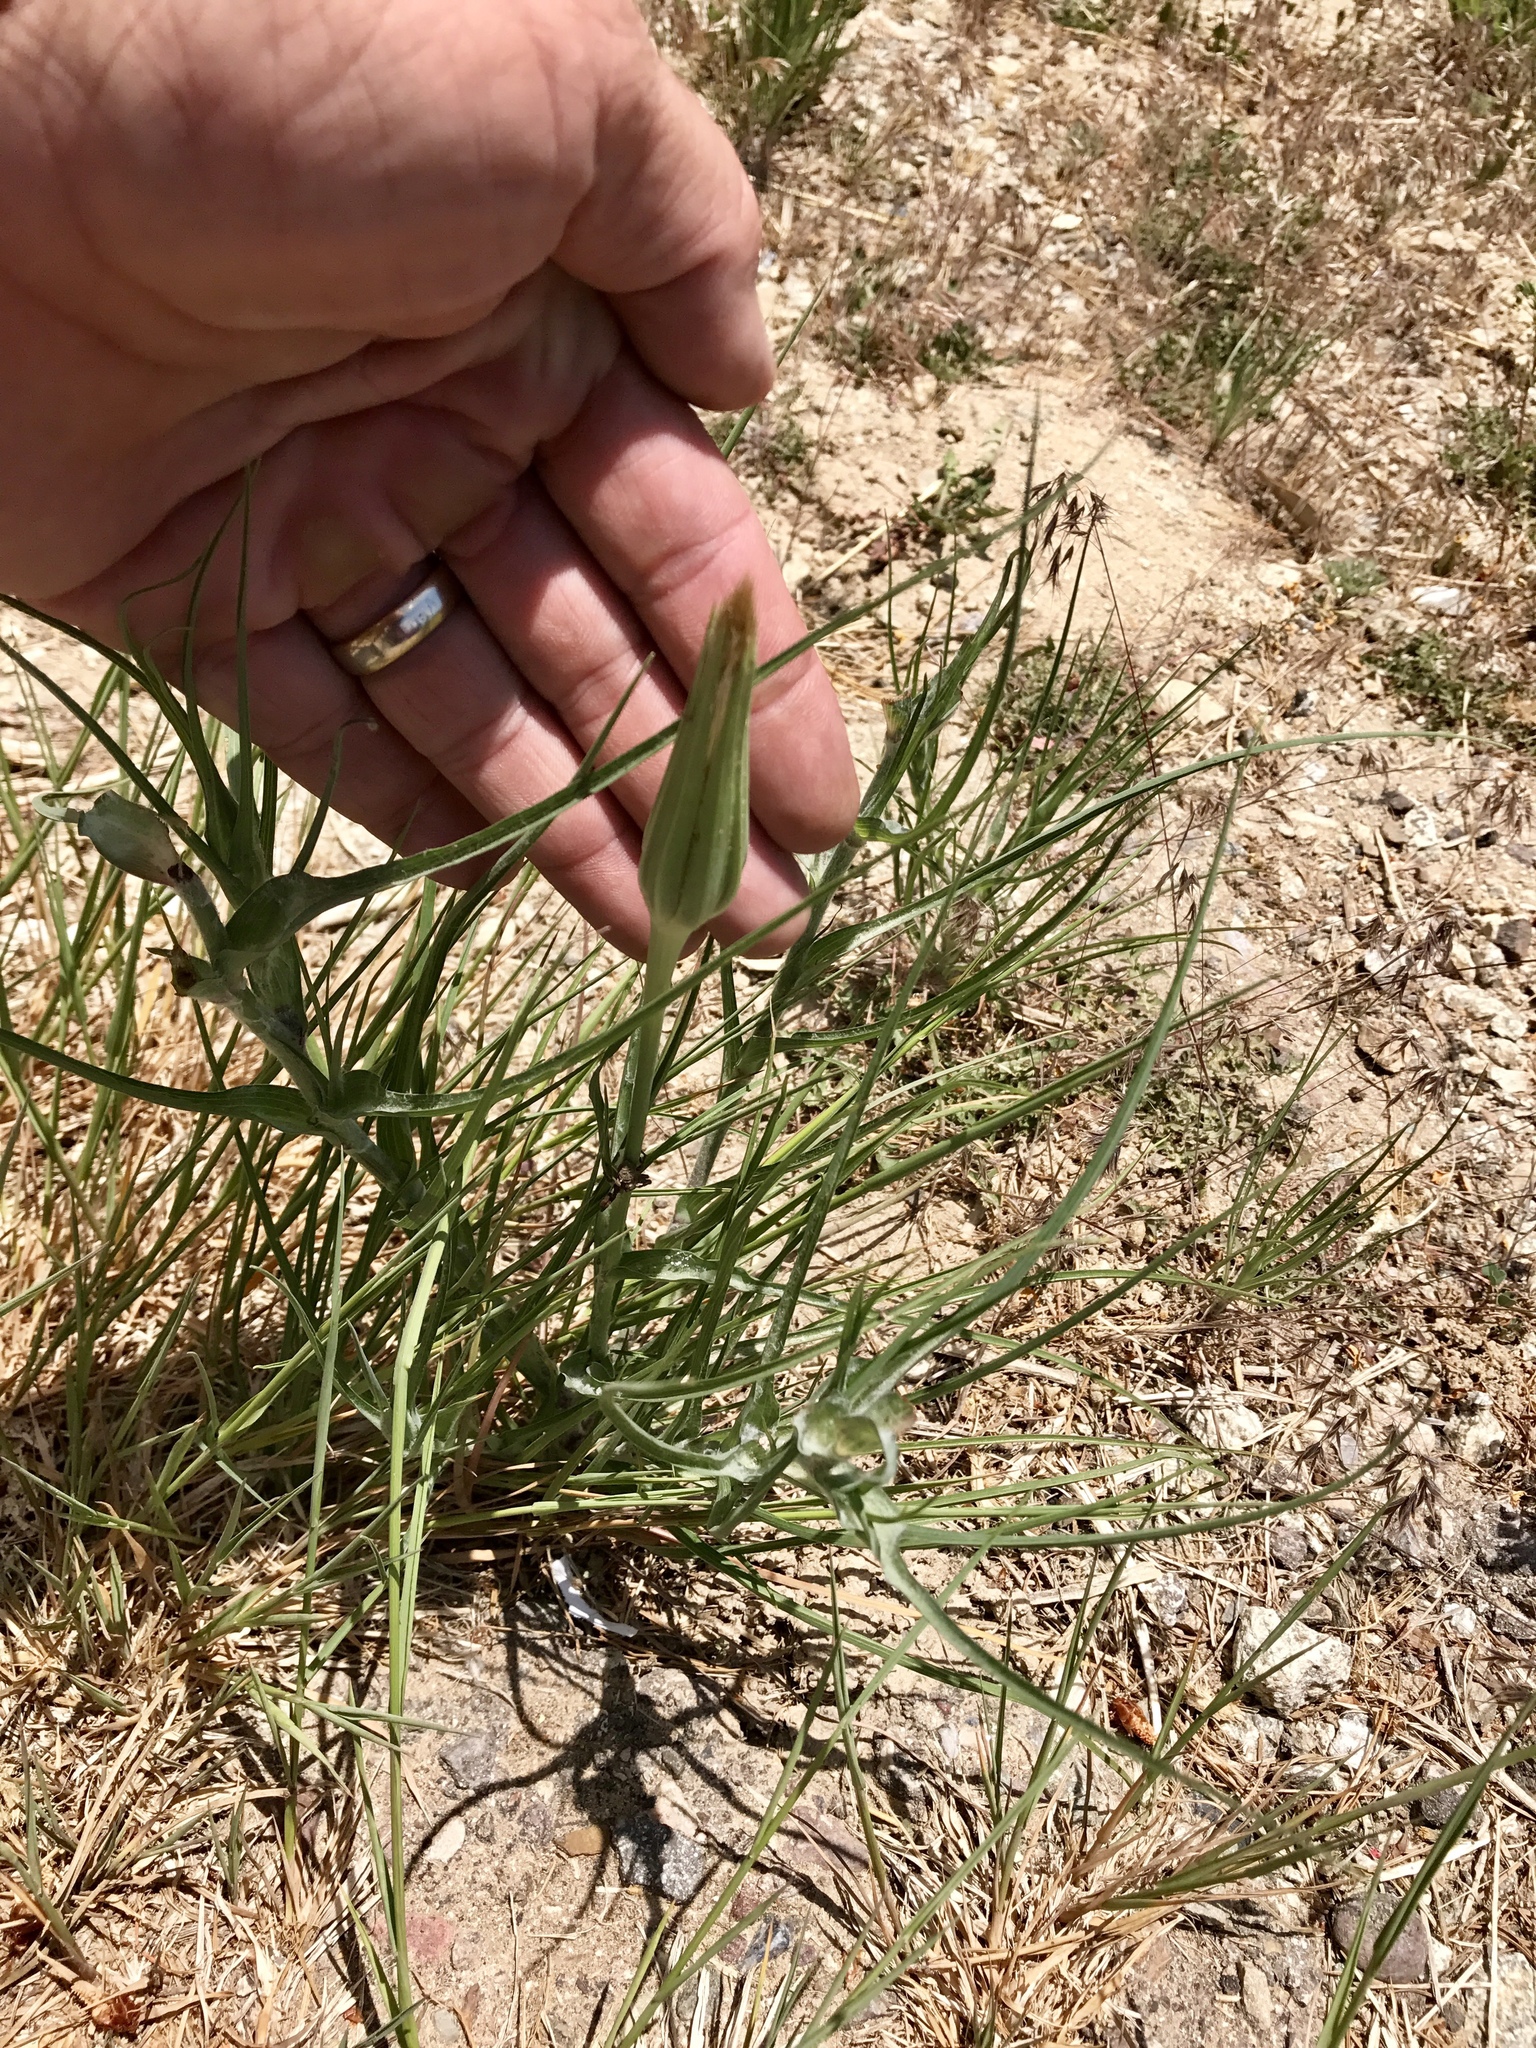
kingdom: Plantae
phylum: Tracheophyta
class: Magnoliopsida
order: Asterales
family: Asteraceae
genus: Tragopogon
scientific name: Tragopogon dubius
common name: Yellow salsify
